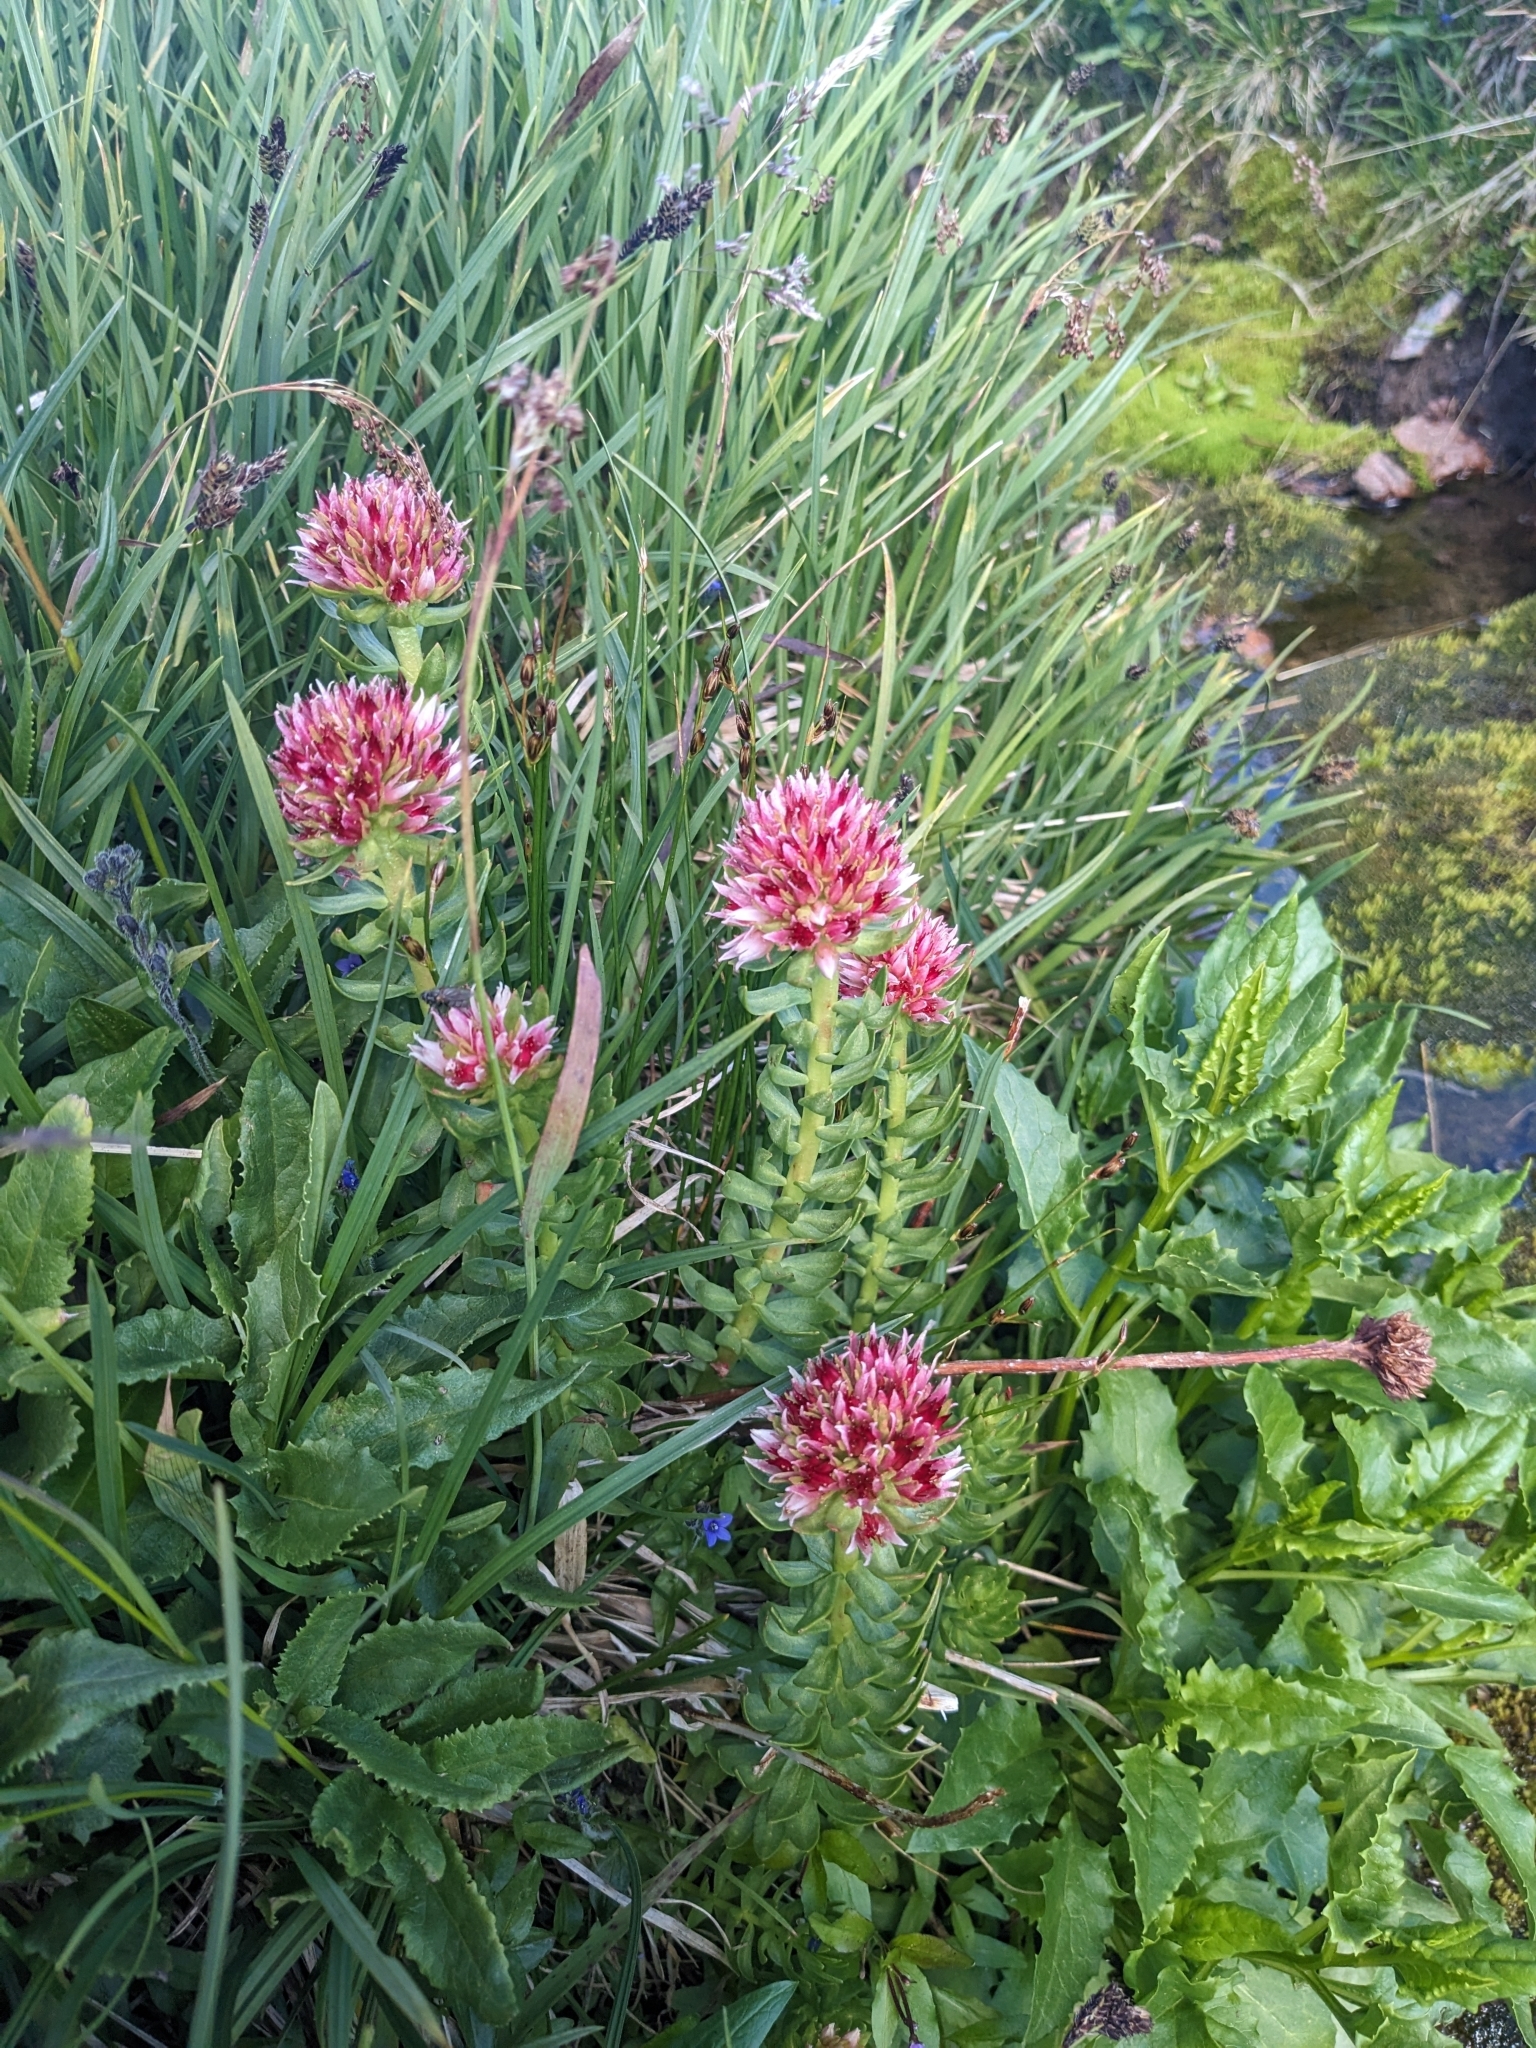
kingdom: Plantae
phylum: Tracheophyta
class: Magnoliopsida
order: Saxifragales
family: Crassulaceae
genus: Rhodiola
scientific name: Rhodiola rhodantha
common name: Red orpine
